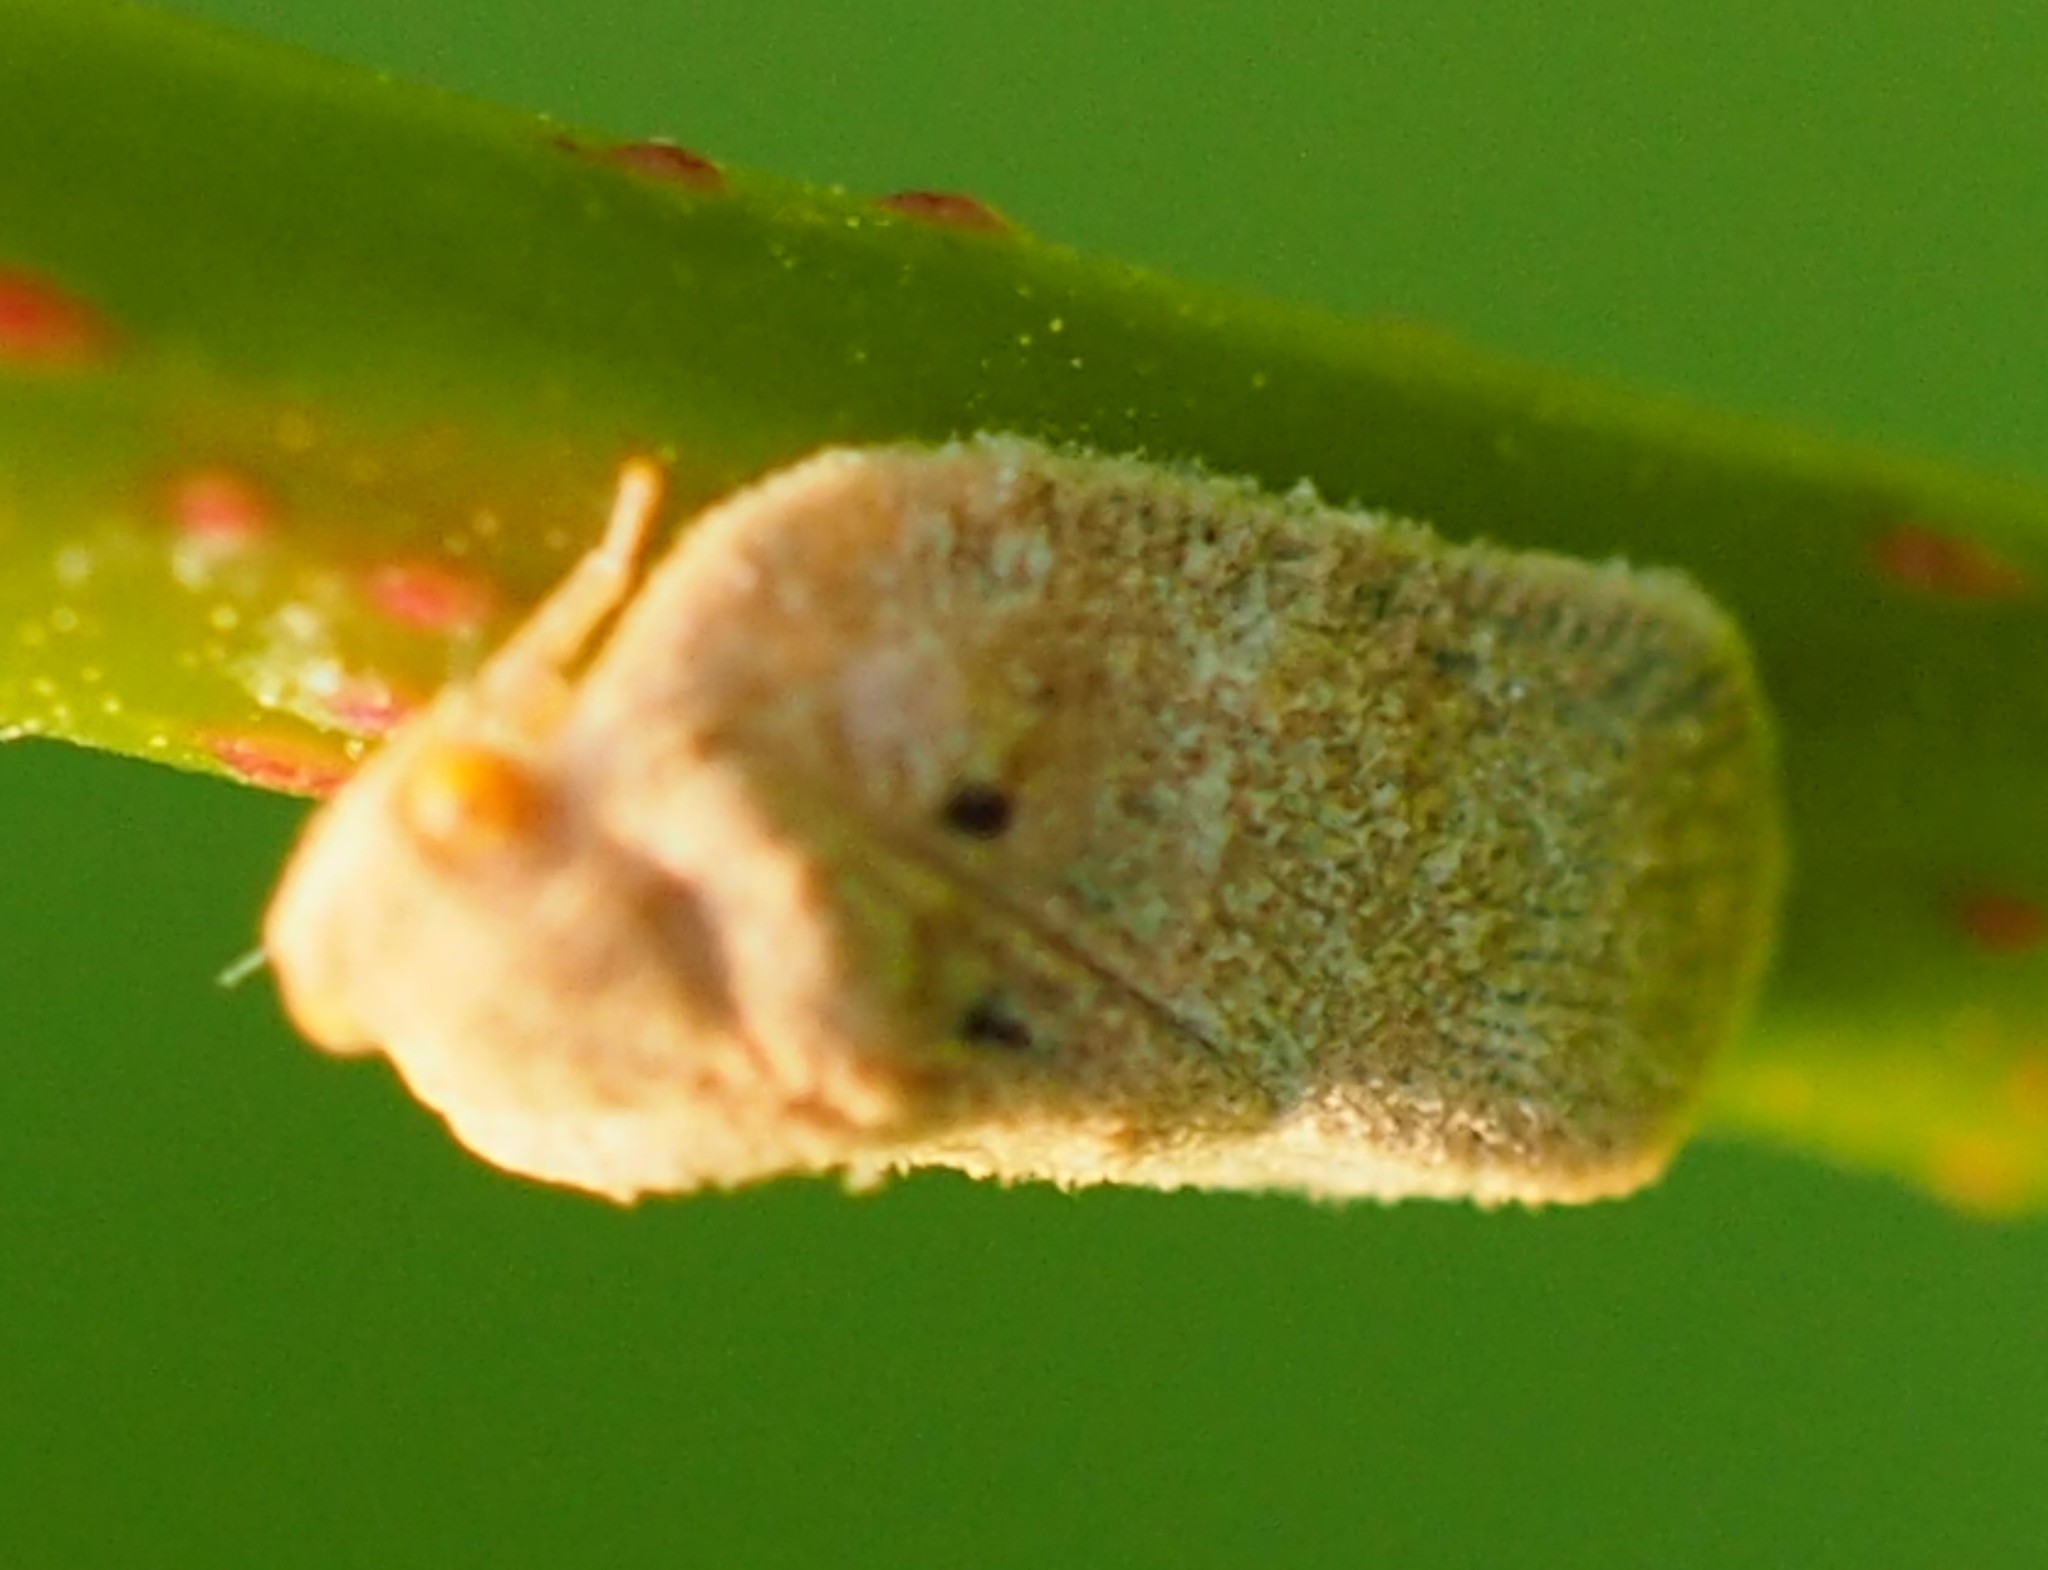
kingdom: Animalia
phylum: Arthropoda
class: Insecta
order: Hemiptera
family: Flatidae
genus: Melormenis
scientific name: Melormenis basalis
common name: Puerto rican planthopper
